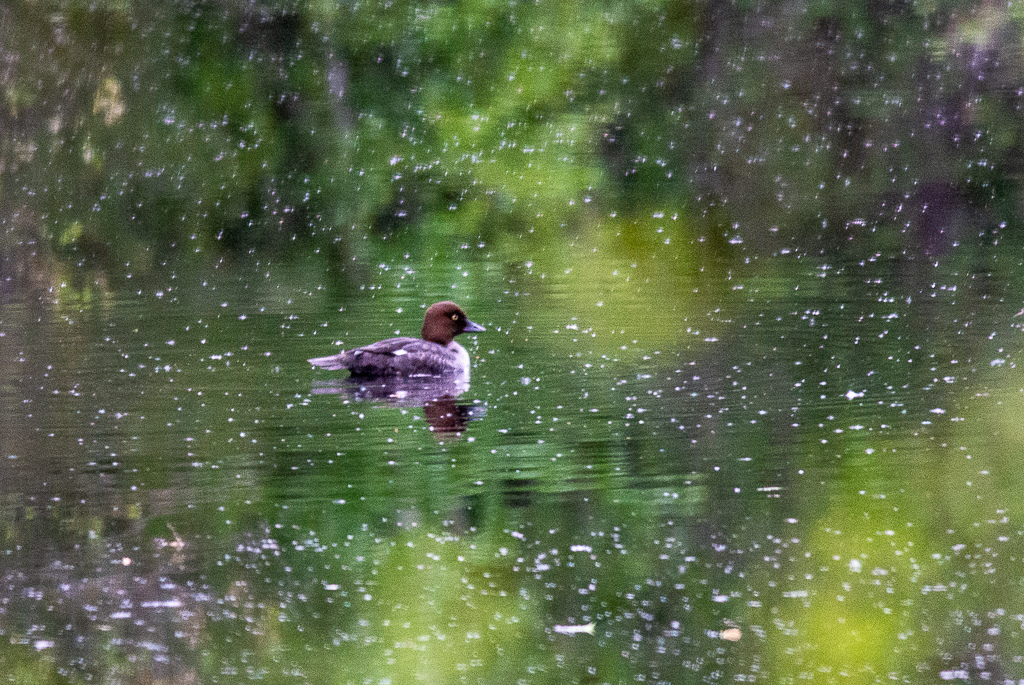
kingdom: Animalia
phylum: Chordata
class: Aves
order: Anseriformes
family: Anatidae
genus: Bucephala
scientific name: Bucephala clangula
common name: Common goldeneye
